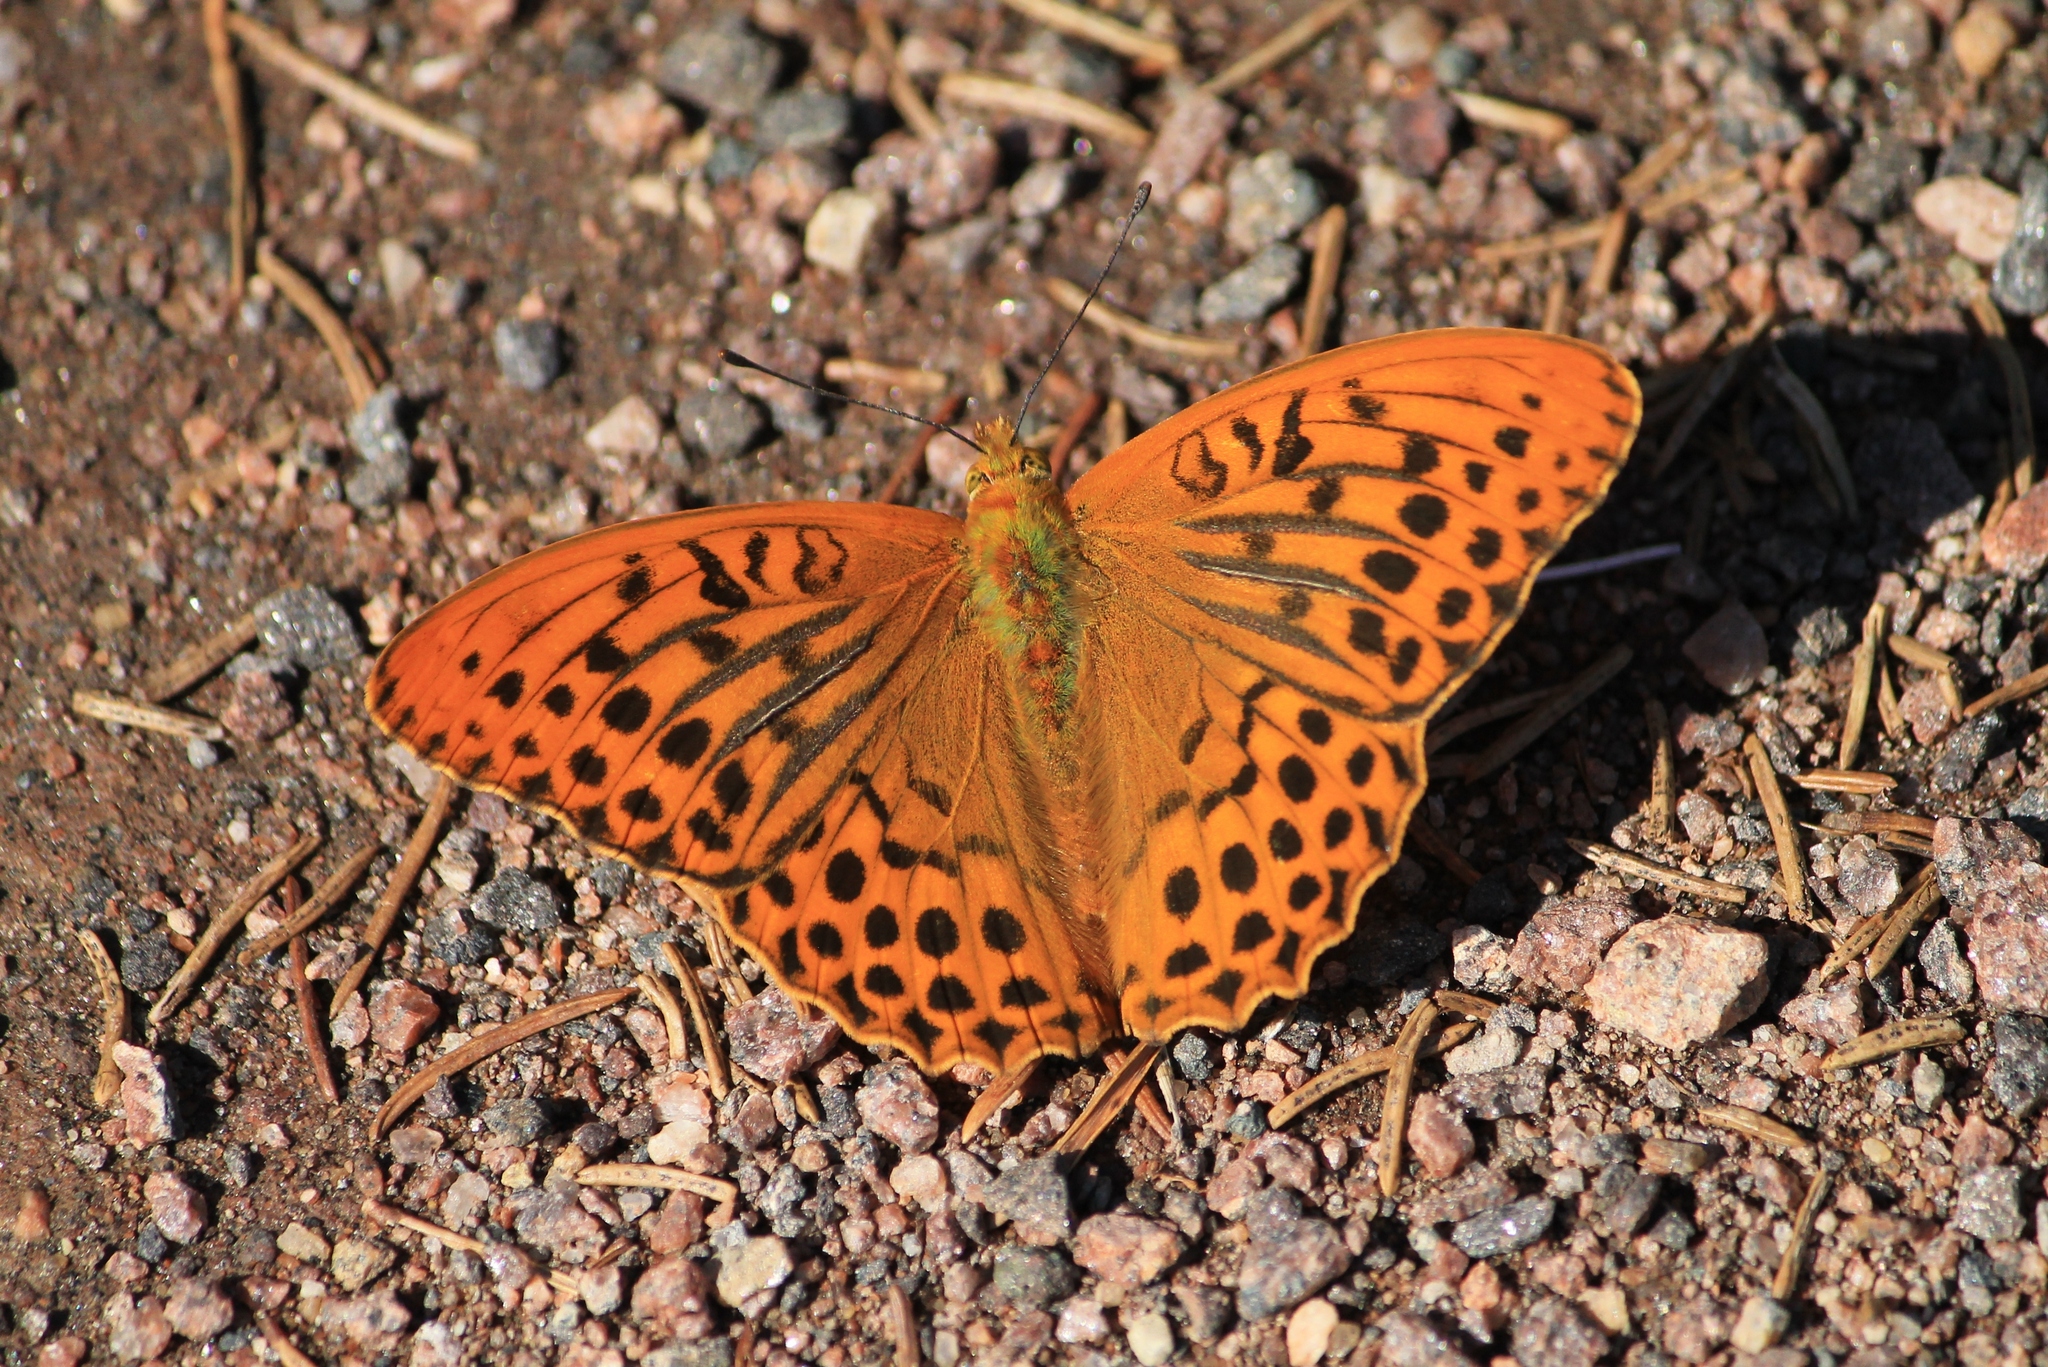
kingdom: Animalia
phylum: Arthropoda
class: Insecta
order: Lepidoptera
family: Nymphalidae
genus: Argynnis
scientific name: Argynnis paphia
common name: Silver-washed fritillary
